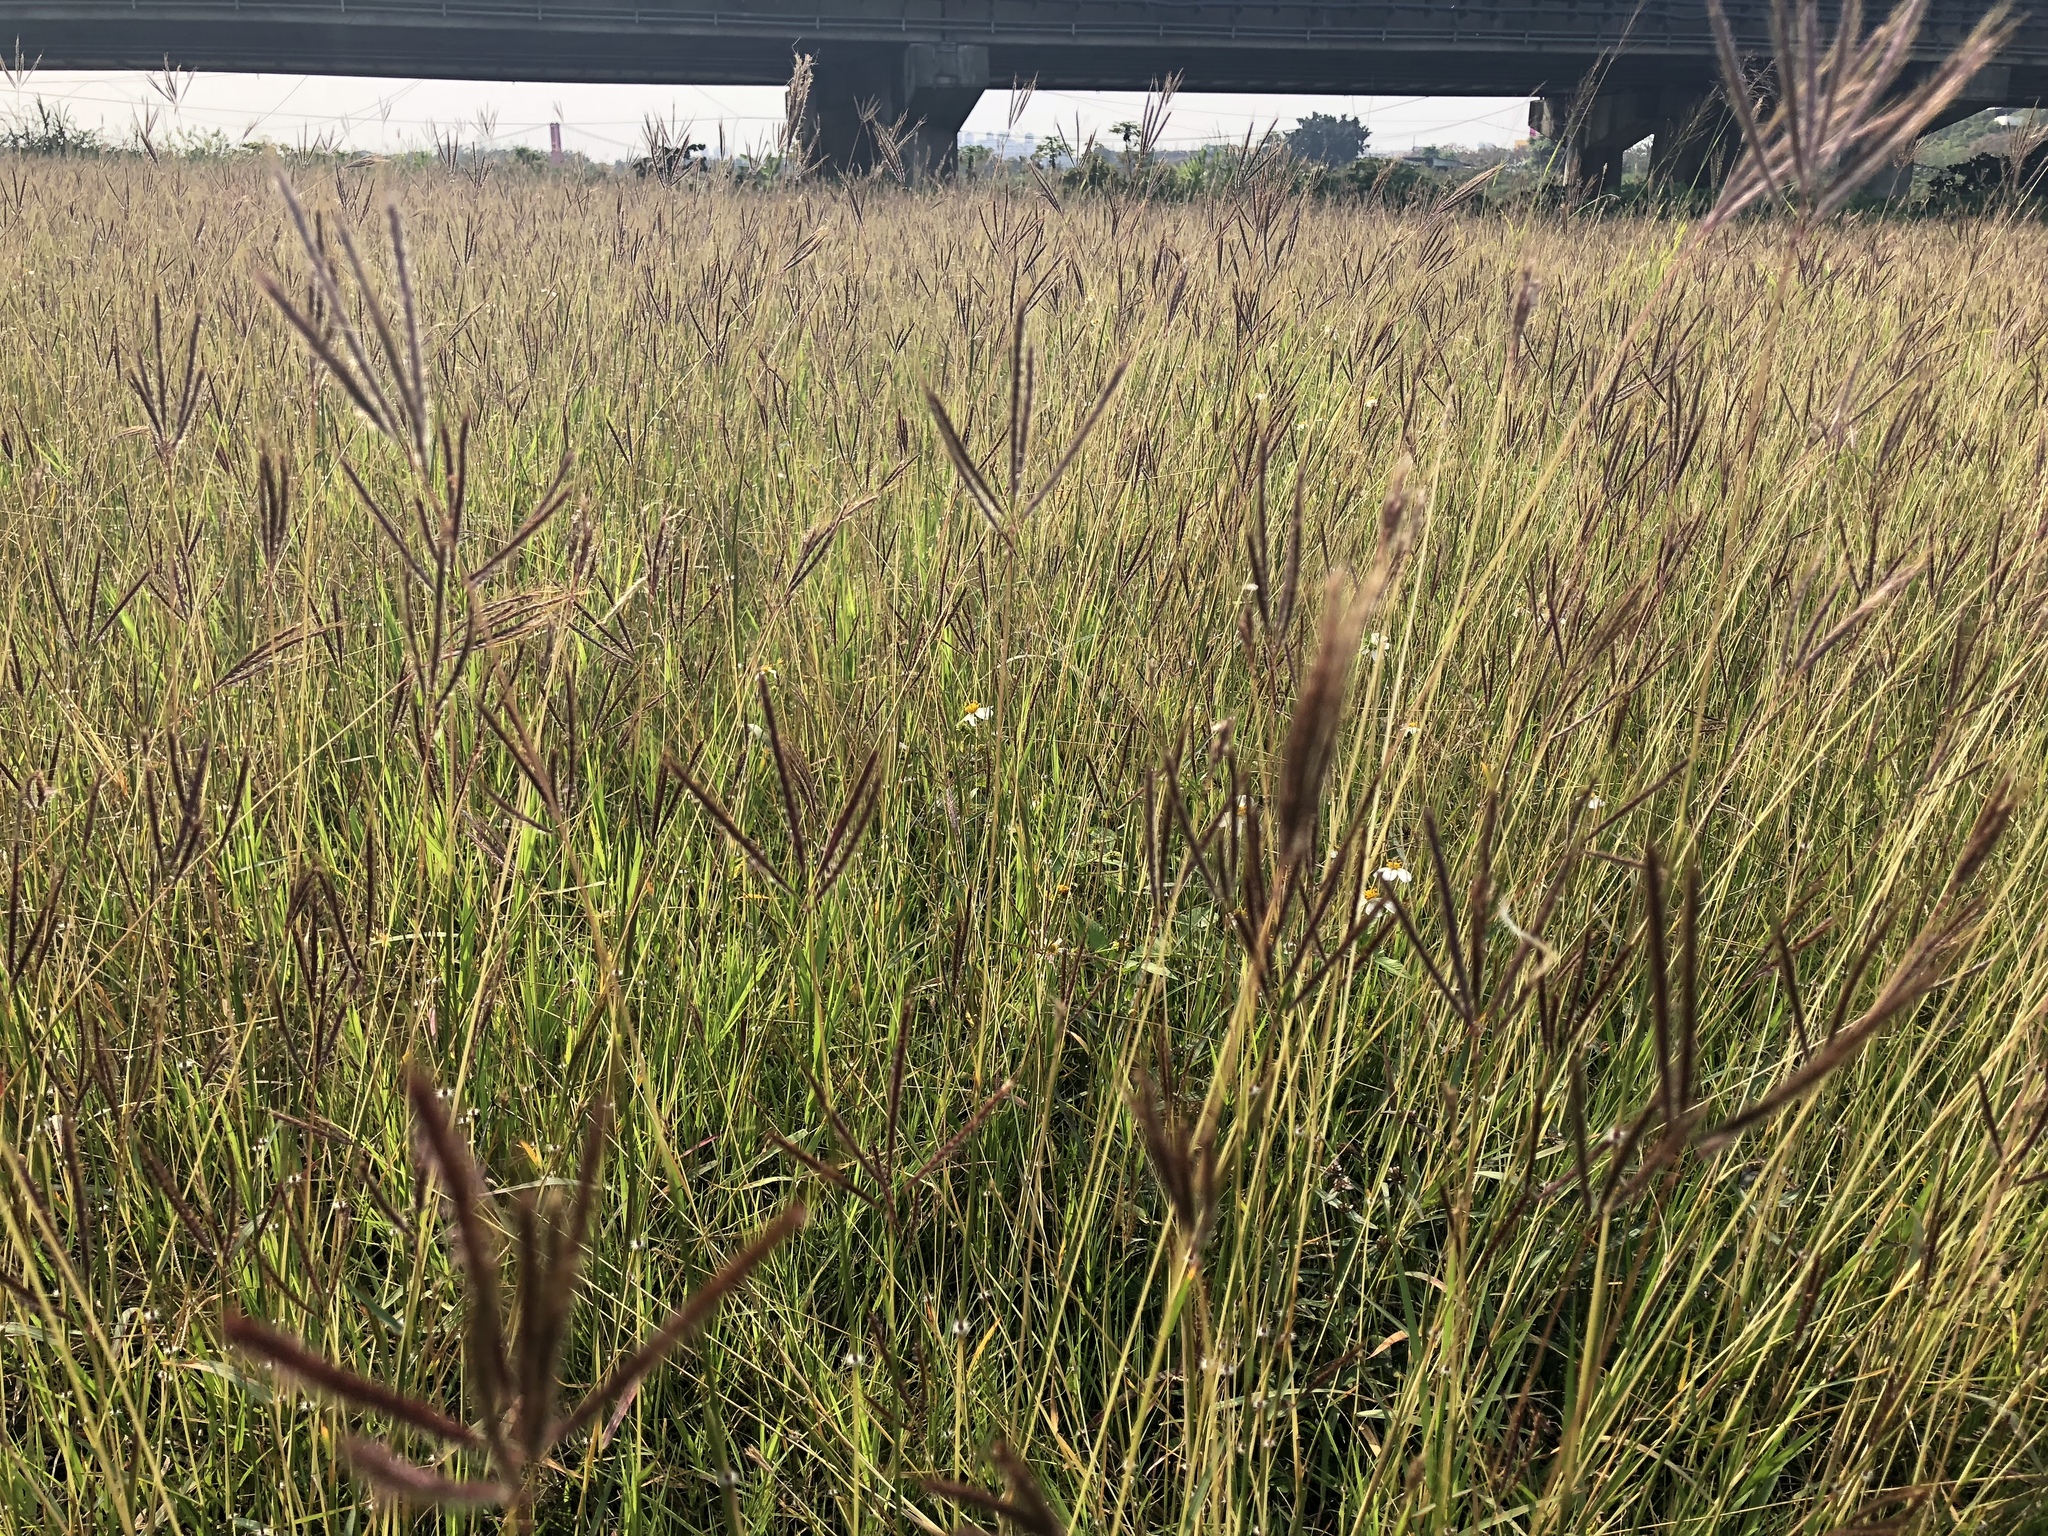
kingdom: Plantae
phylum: Tracheophyta
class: Liliopsida
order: Poales
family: Poaceae
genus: Dichanthium
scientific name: Dichanthium annulatum
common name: Kleberg's bluestem
